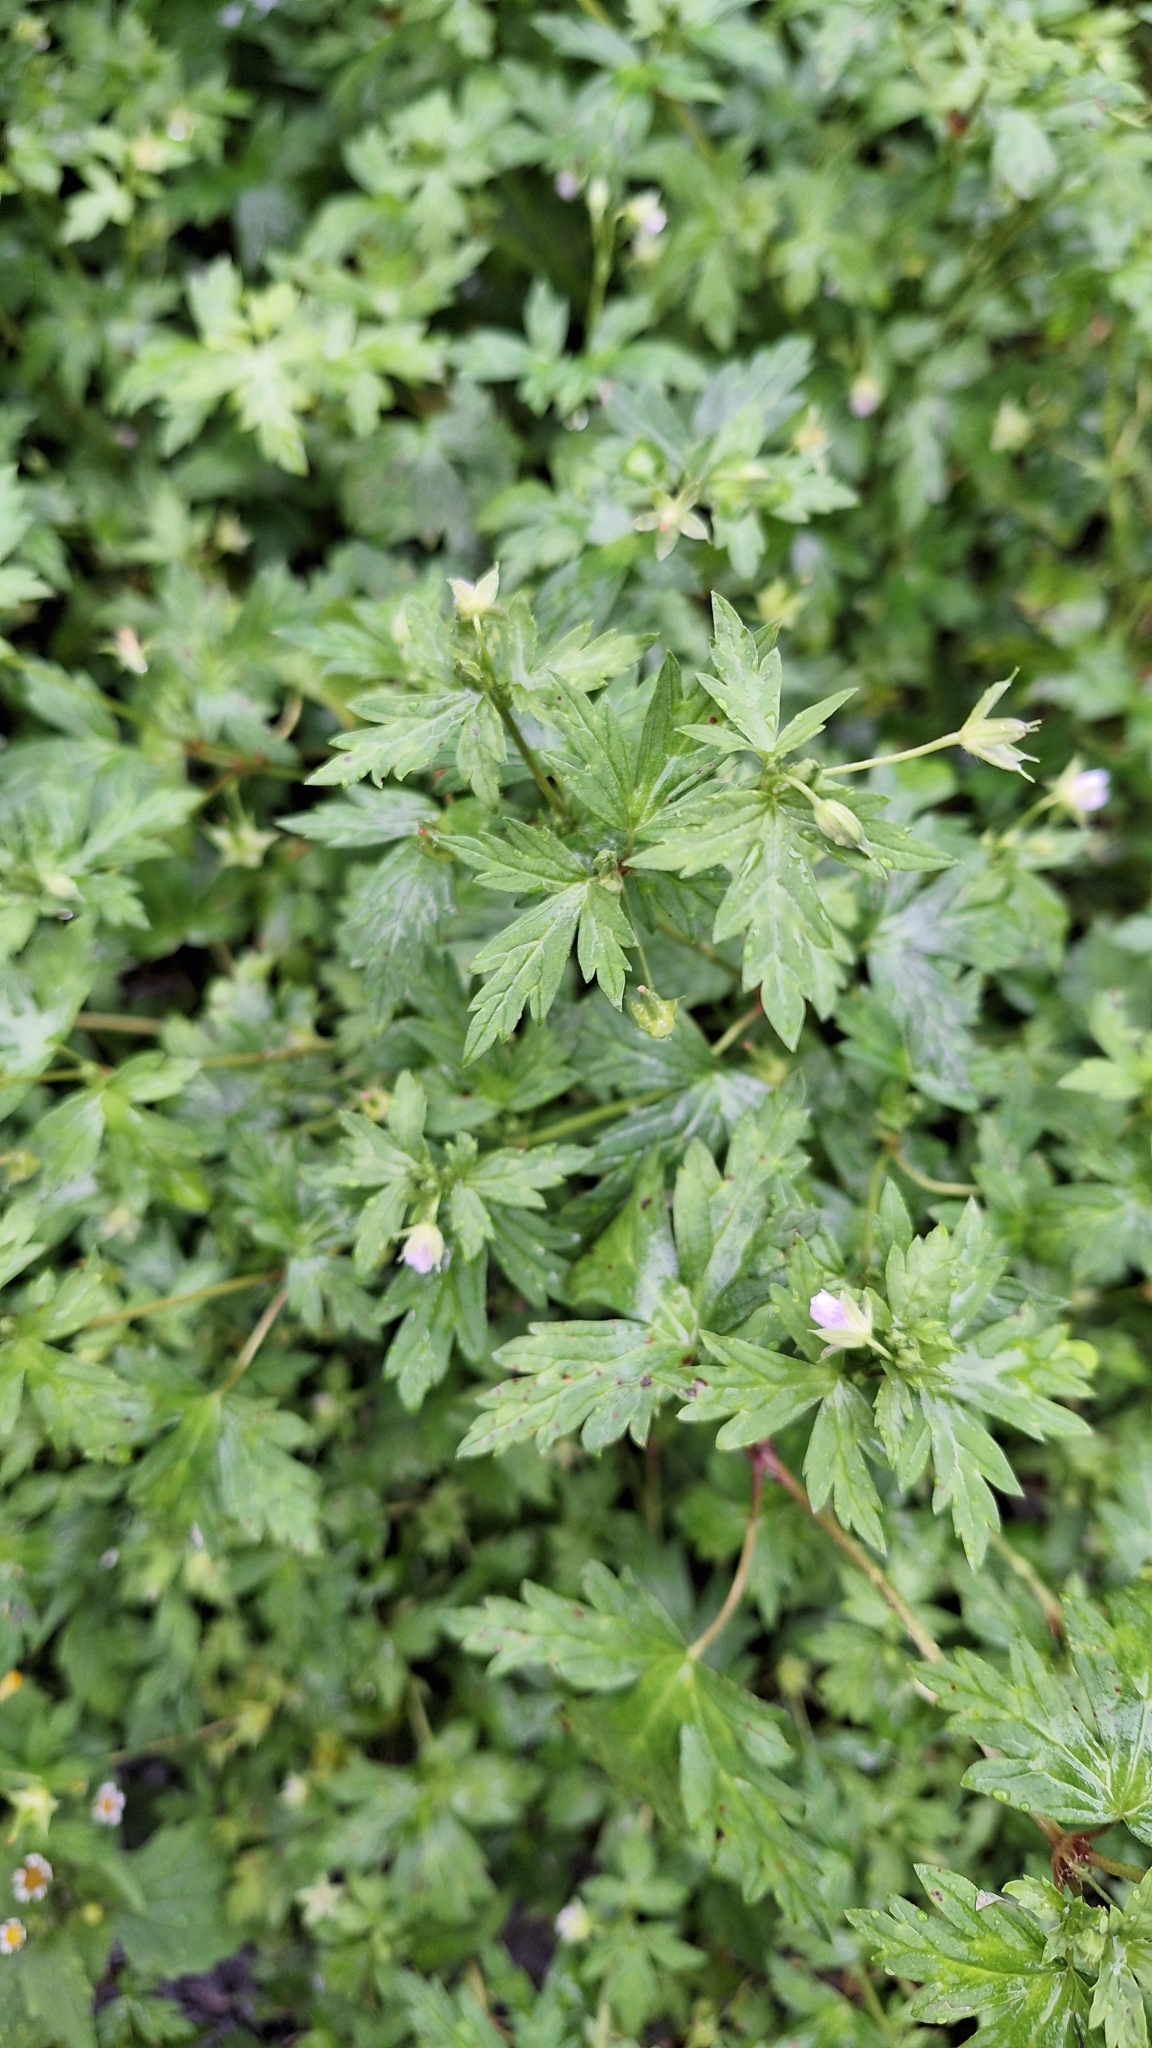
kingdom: Plantae
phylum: Tracheophyta
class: Magnoliopsida
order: Geraniales
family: Geraniaceae
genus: Geranium
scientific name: Geranium sibiricum
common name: Siberian crane's-bill
